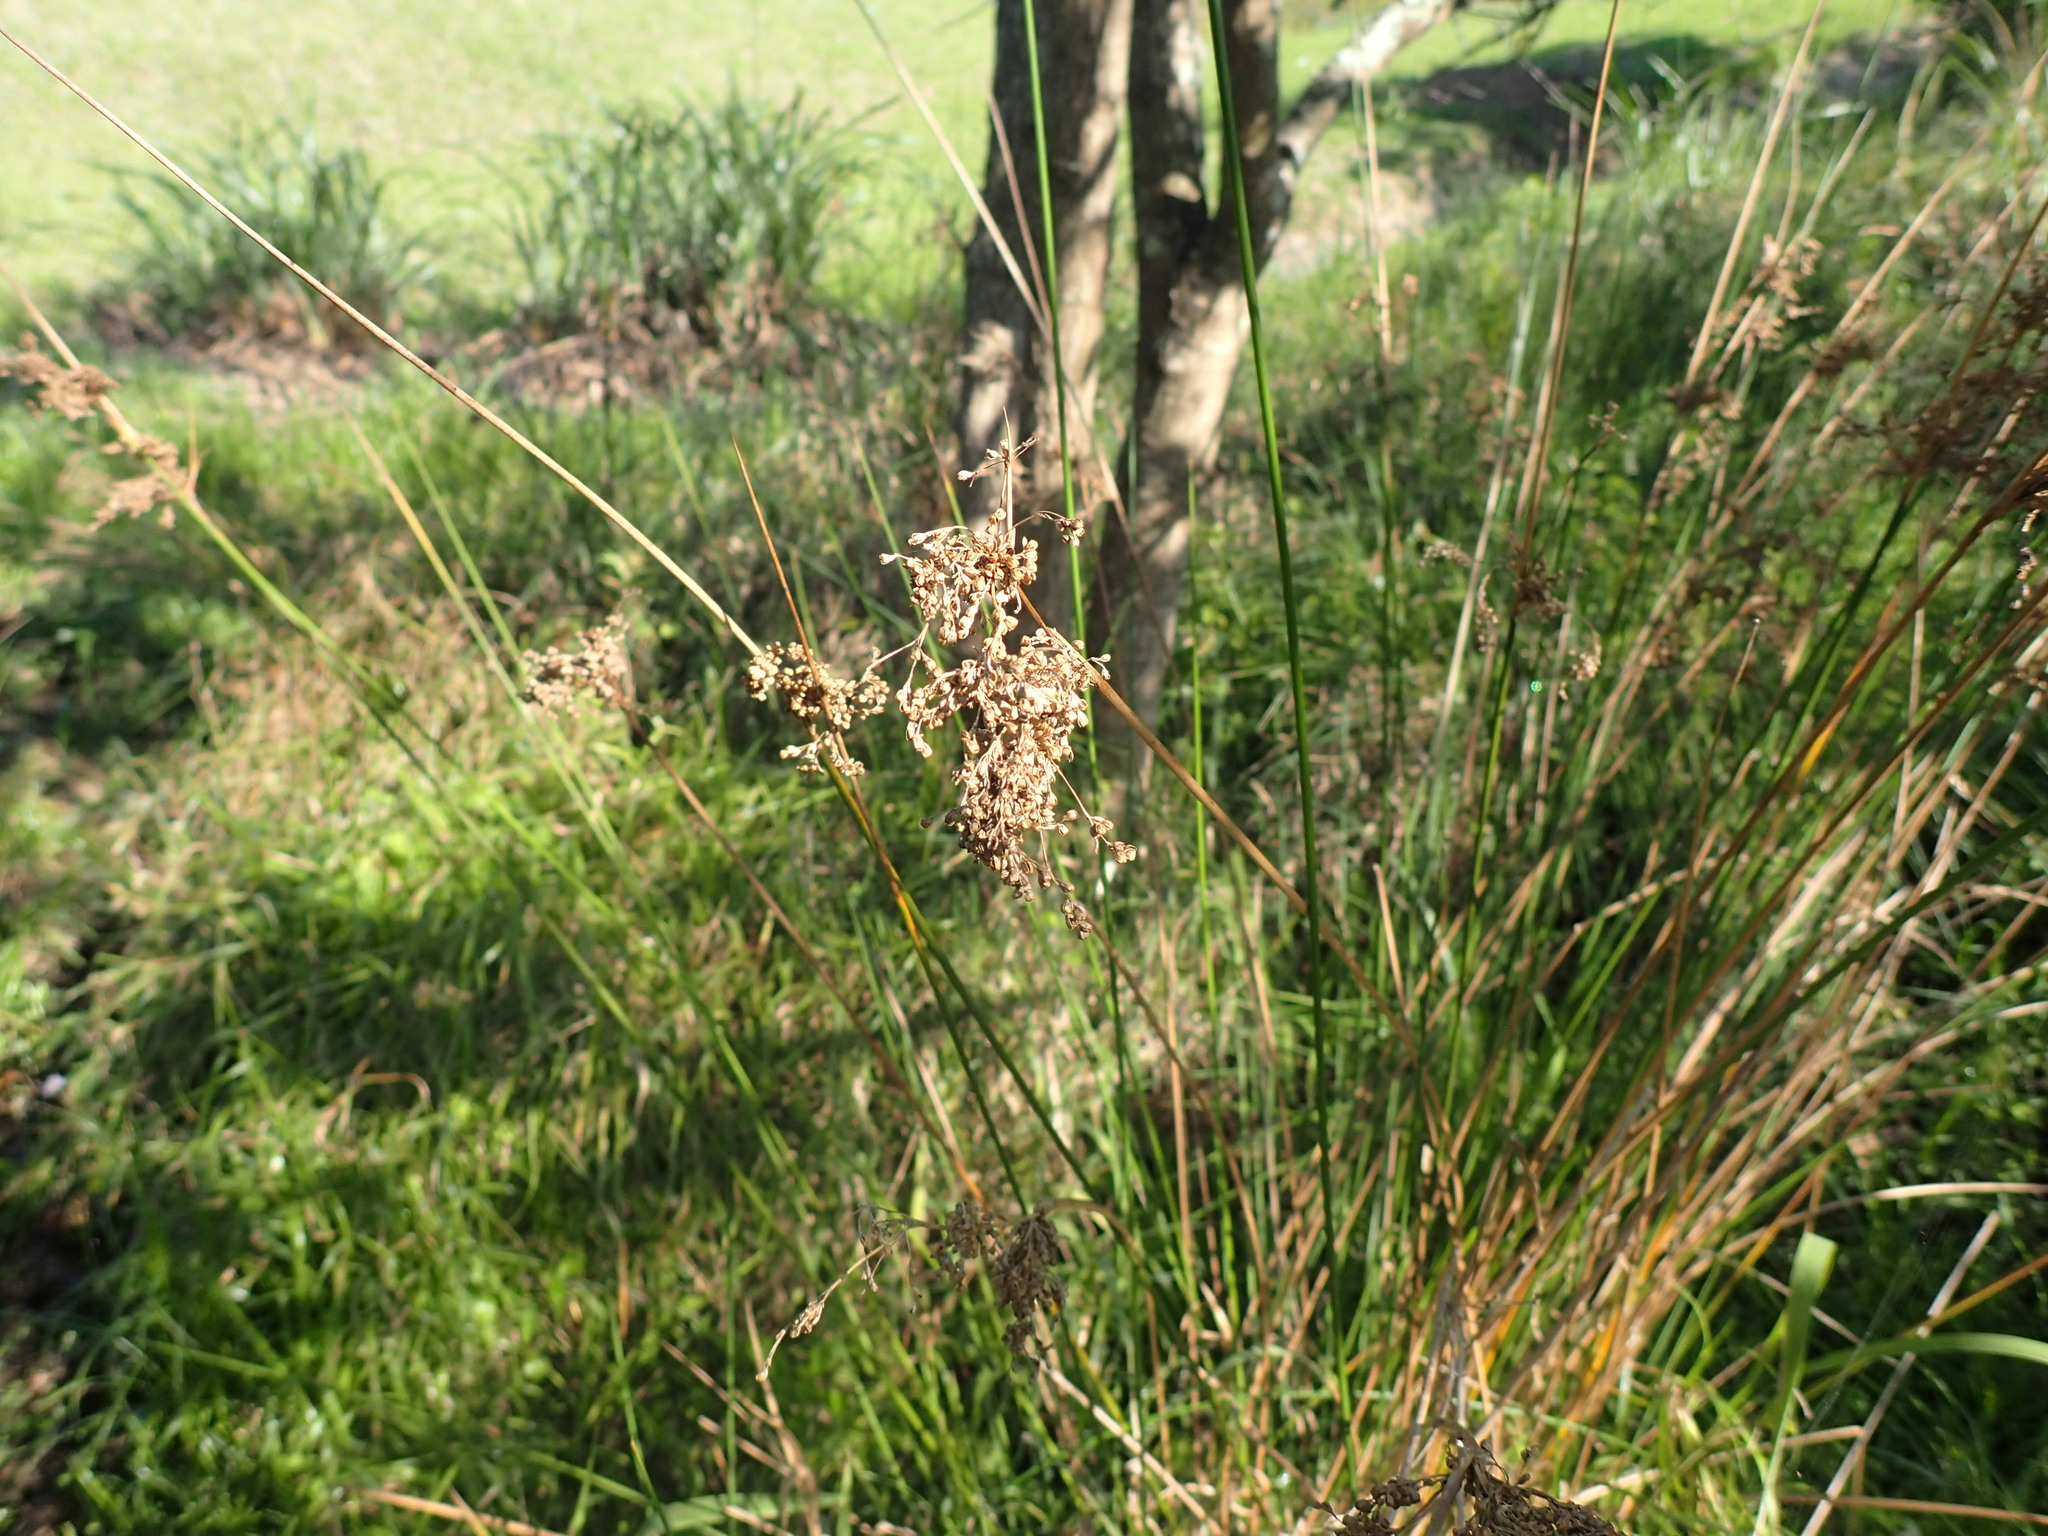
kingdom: Plantae
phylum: Tracheophyta
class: Liliopsida
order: Poales
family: Juncaceae
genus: Juncus
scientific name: Juncus effusus
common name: Soft rush
